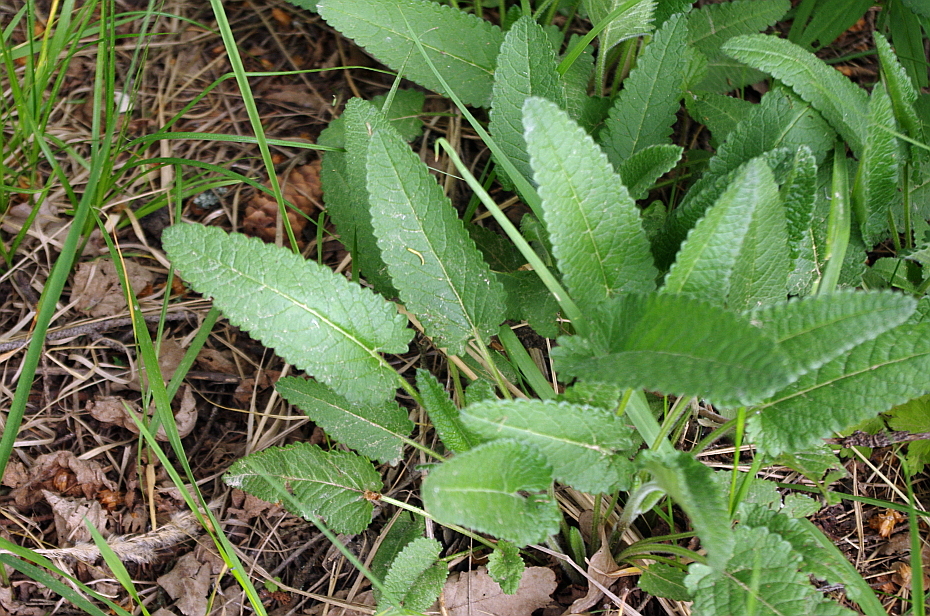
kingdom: Plantae
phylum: Tracheophyta
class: Magnoliopsida
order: Lamiales
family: Lamiaceae
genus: Betonica
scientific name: Betonica officinalis
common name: Bishop's-wort
